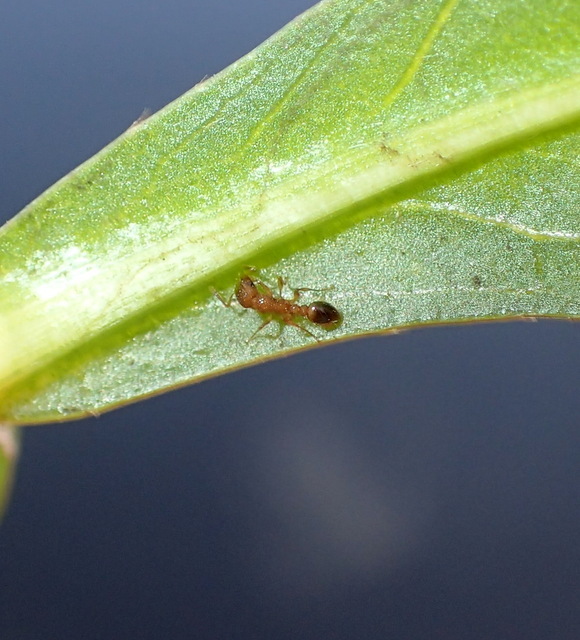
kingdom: Animalia
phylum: Arthropoda
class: Insecta
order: Hymenoptera
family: Formicidae
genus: Tetramorium
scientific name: Tetramorium bicarinatum
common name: Guinea ant
